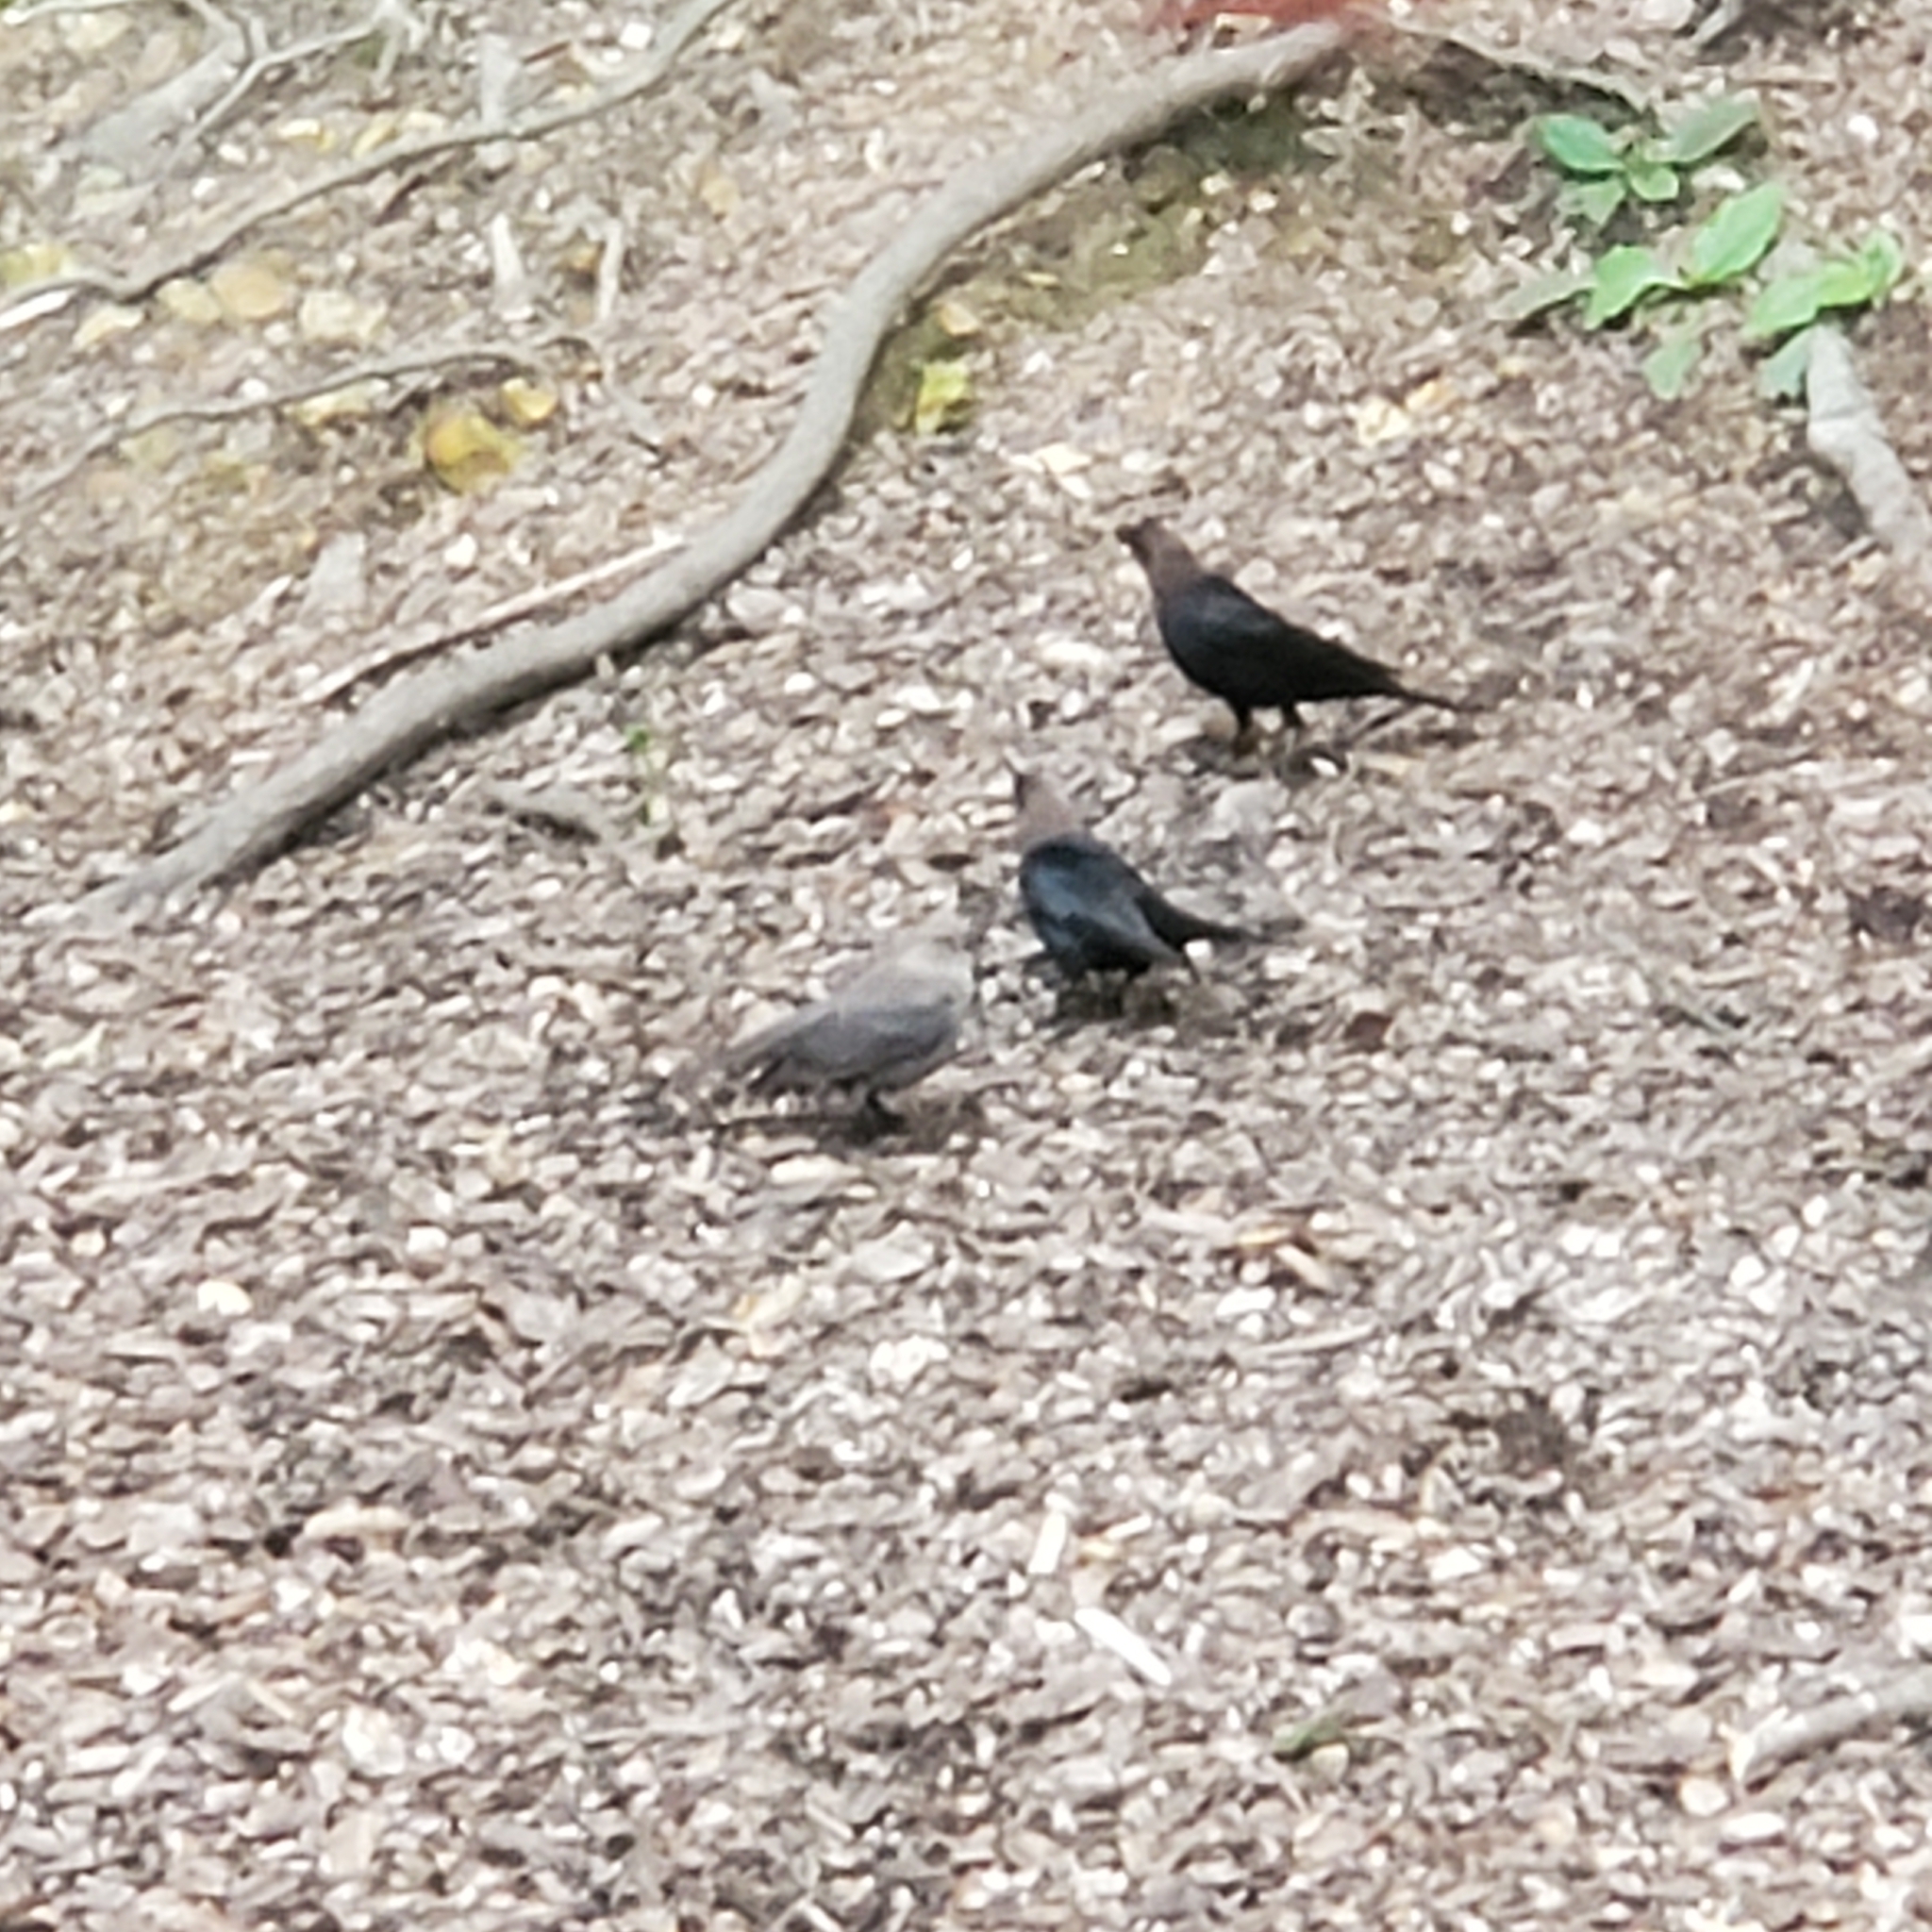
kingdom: Animalia
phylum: Chordata
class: Aves
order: Passeriformes
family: Icteridae
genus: Molothrus
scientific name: Molothrus ater
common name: Brown-headed cowbird
